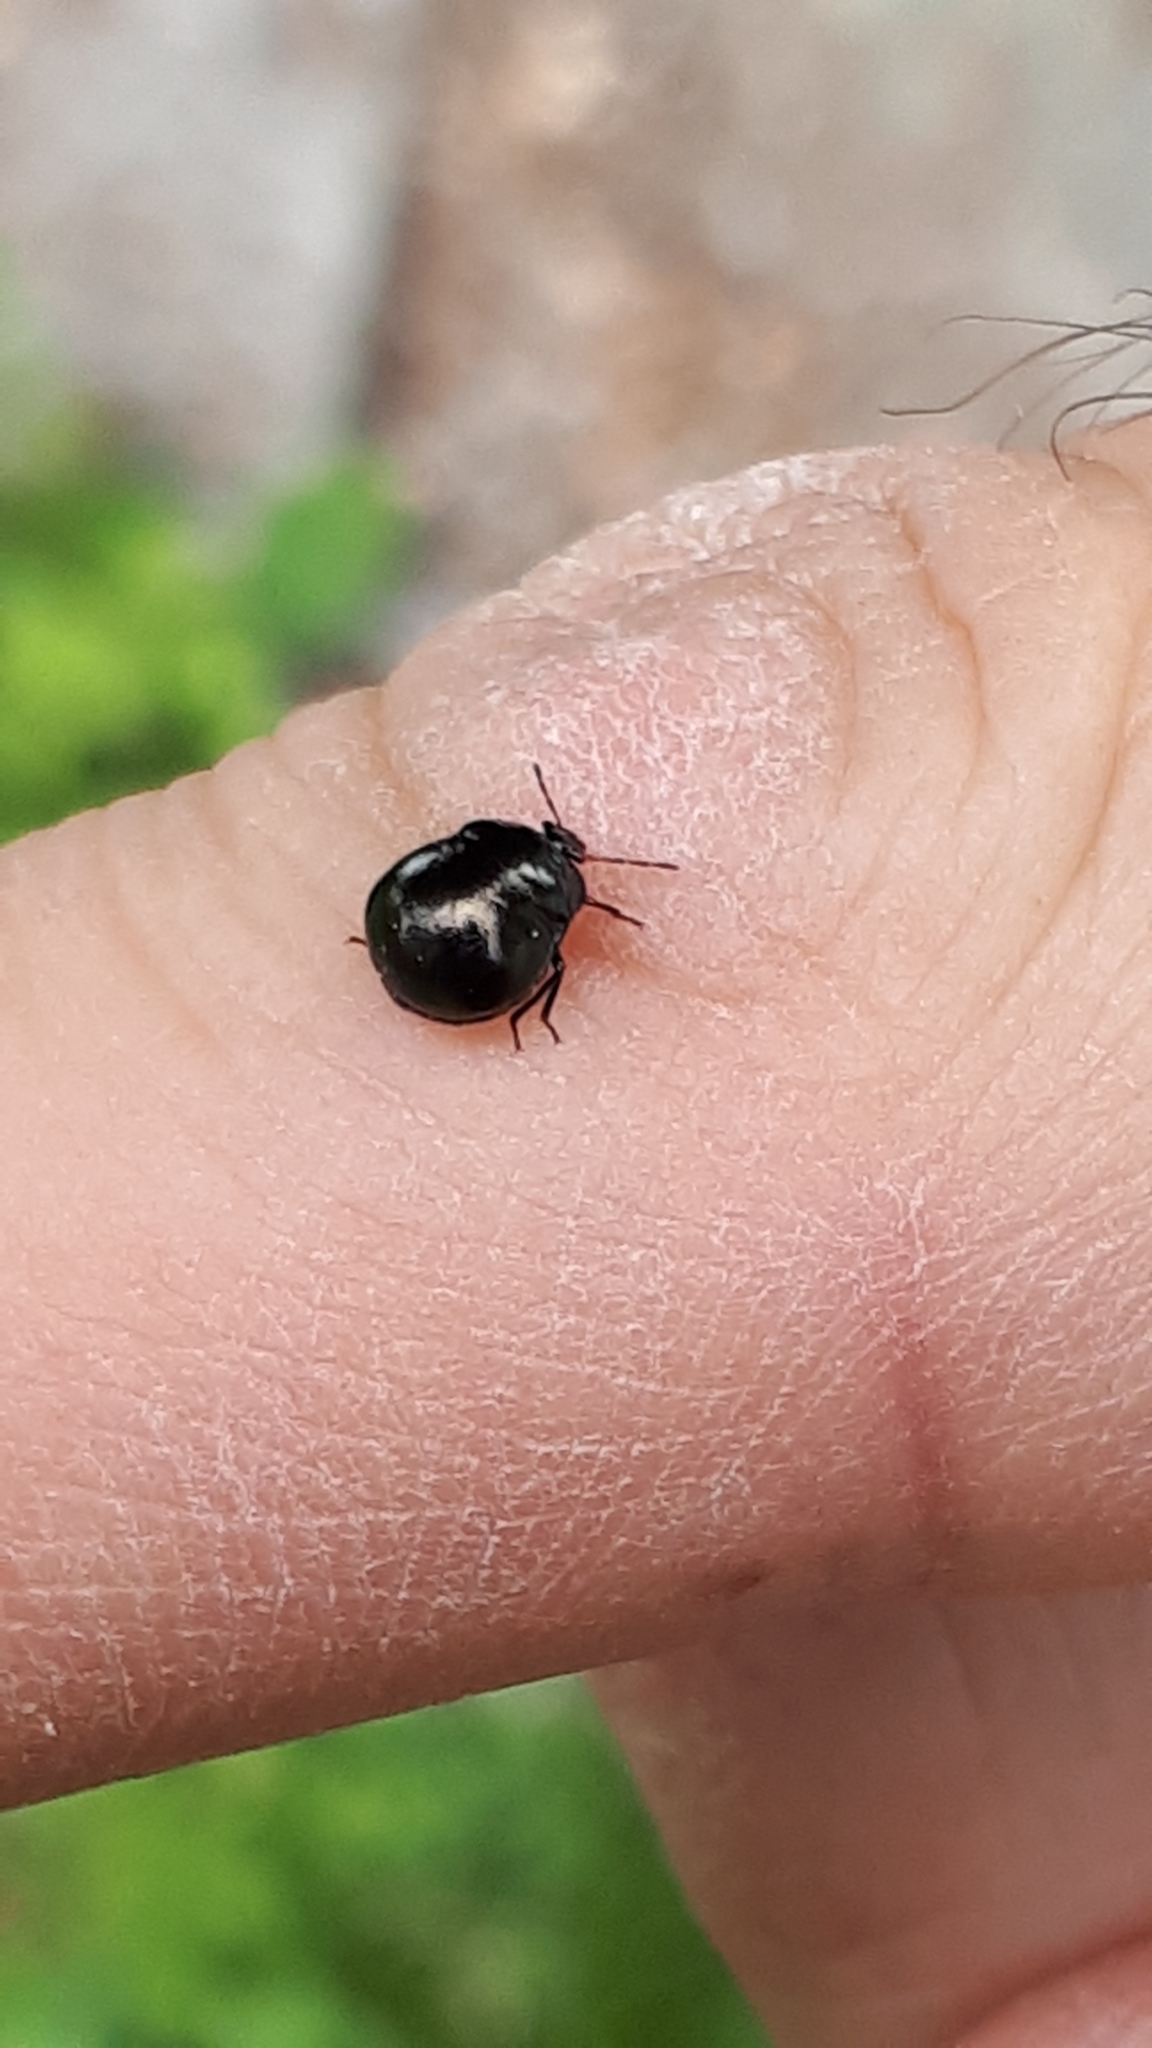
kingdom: Animalia
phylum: Arthropoda
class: Insecta
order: Hemiptera
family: Plataspidae
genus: Coptosoma
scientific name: Coptosoma scutellatum
